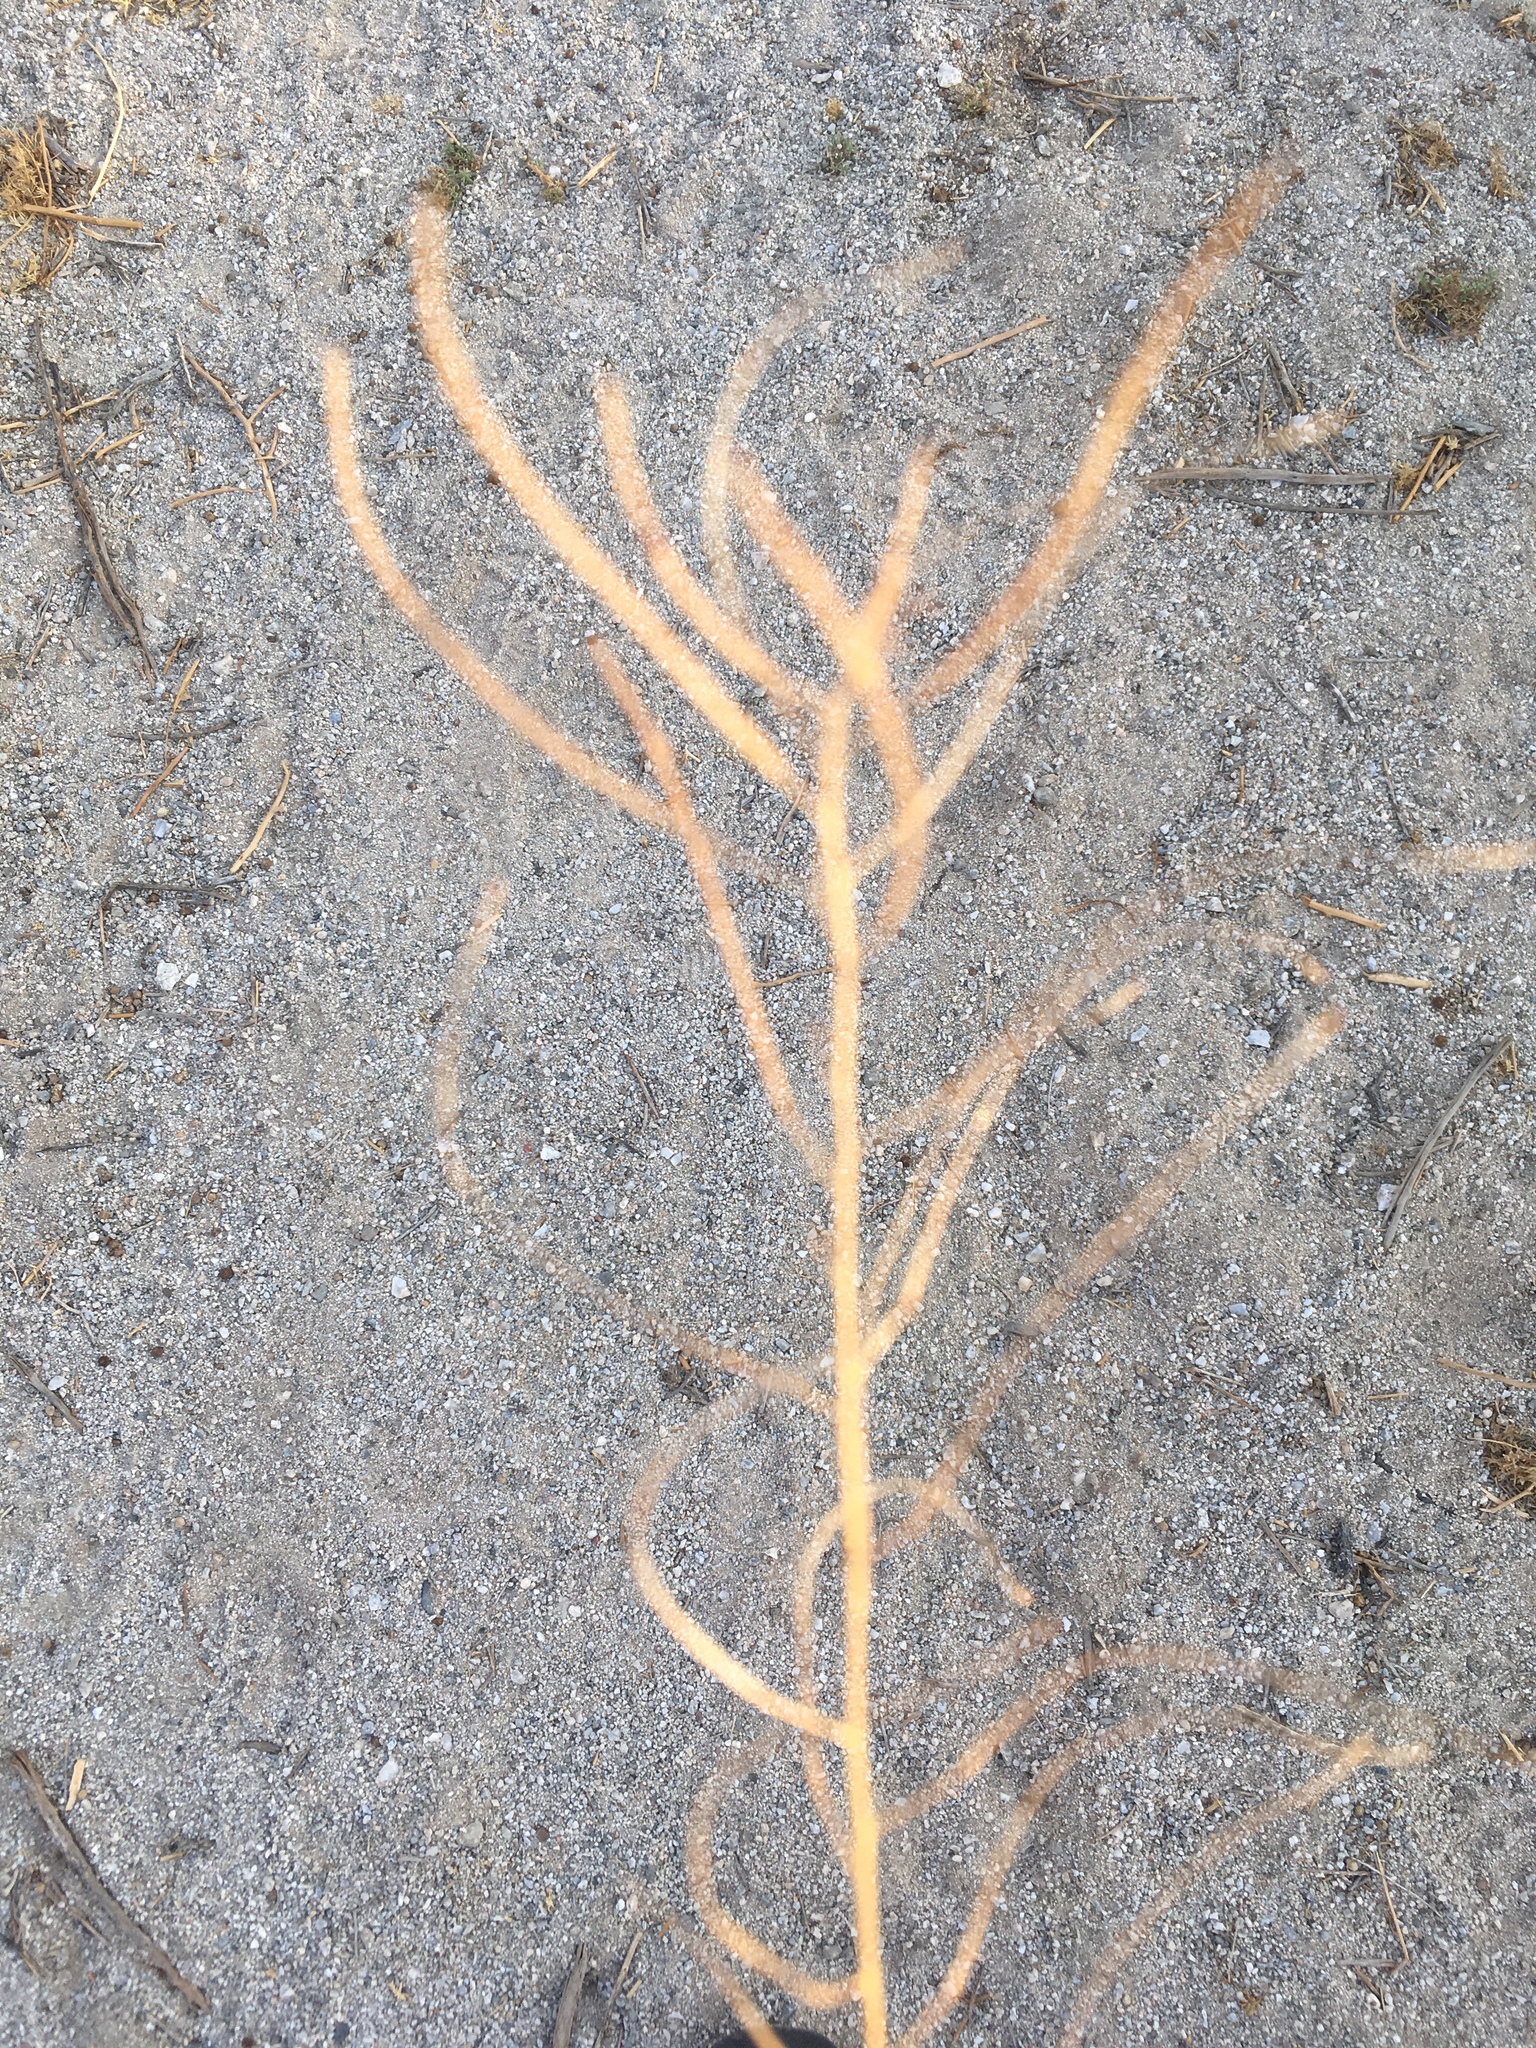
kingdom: Plantae
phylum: Tracheophyta
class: Magnoliopsida
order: Brassicales
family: Brassicaceae
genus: Sisymbrium
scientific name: Sisymbrium irio
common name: London rocket
